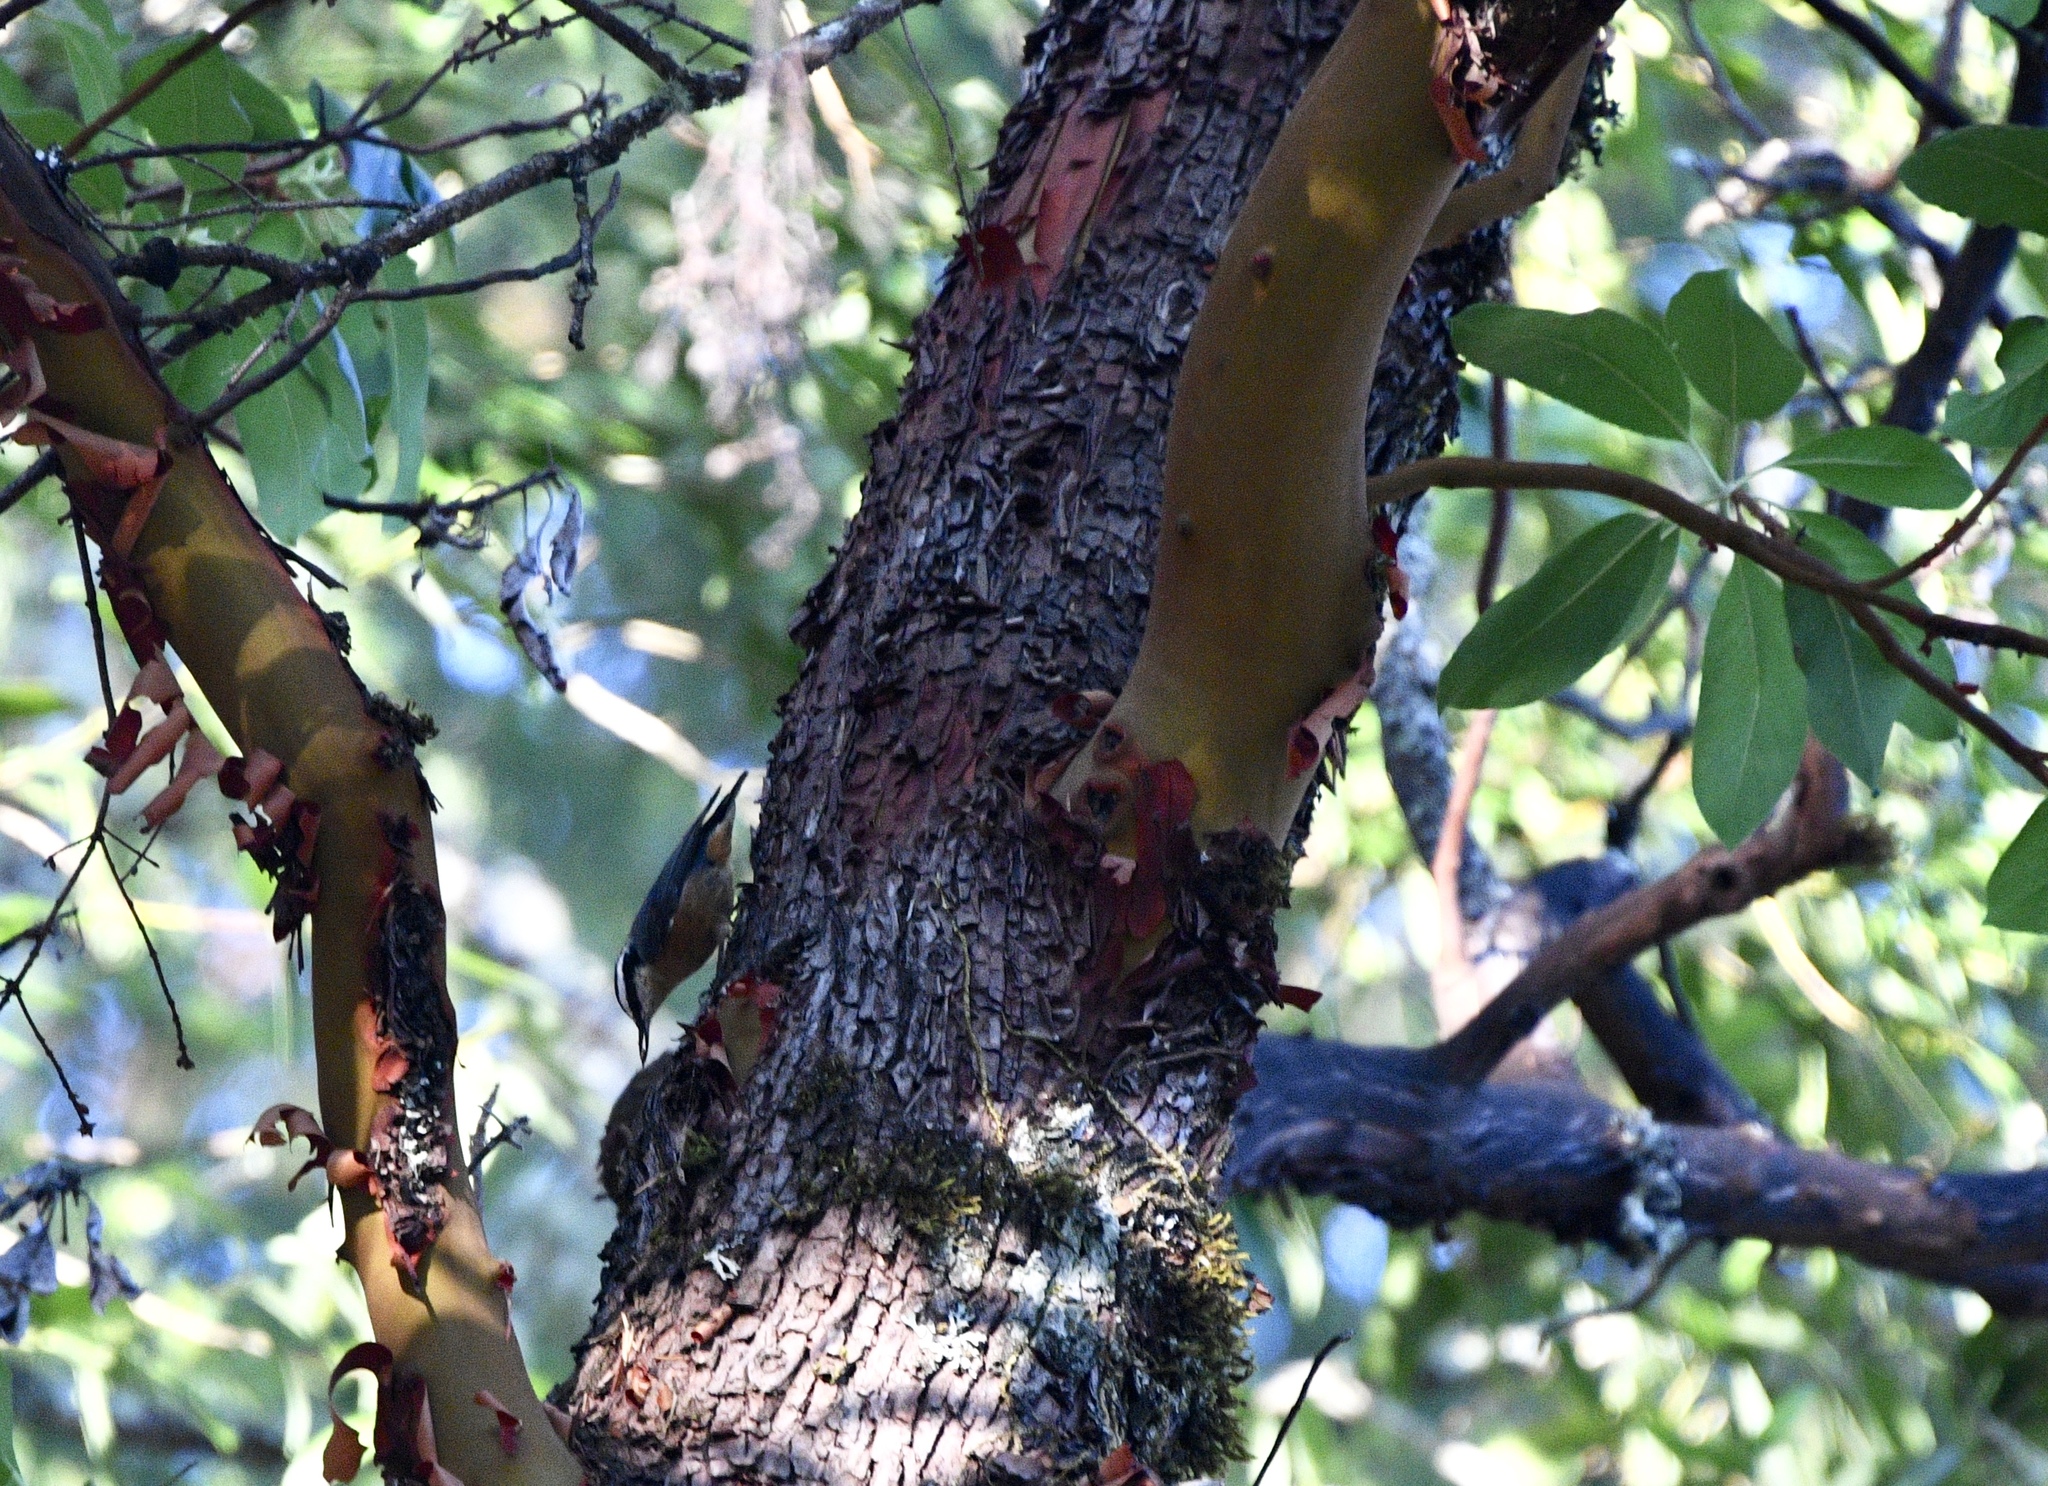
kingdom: Animalia
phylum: Chordata
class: Aves
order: Passeriformes
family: Sittidae
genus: Sitta
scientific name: Sitta canadensis
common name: Red-breasted nuthatch
